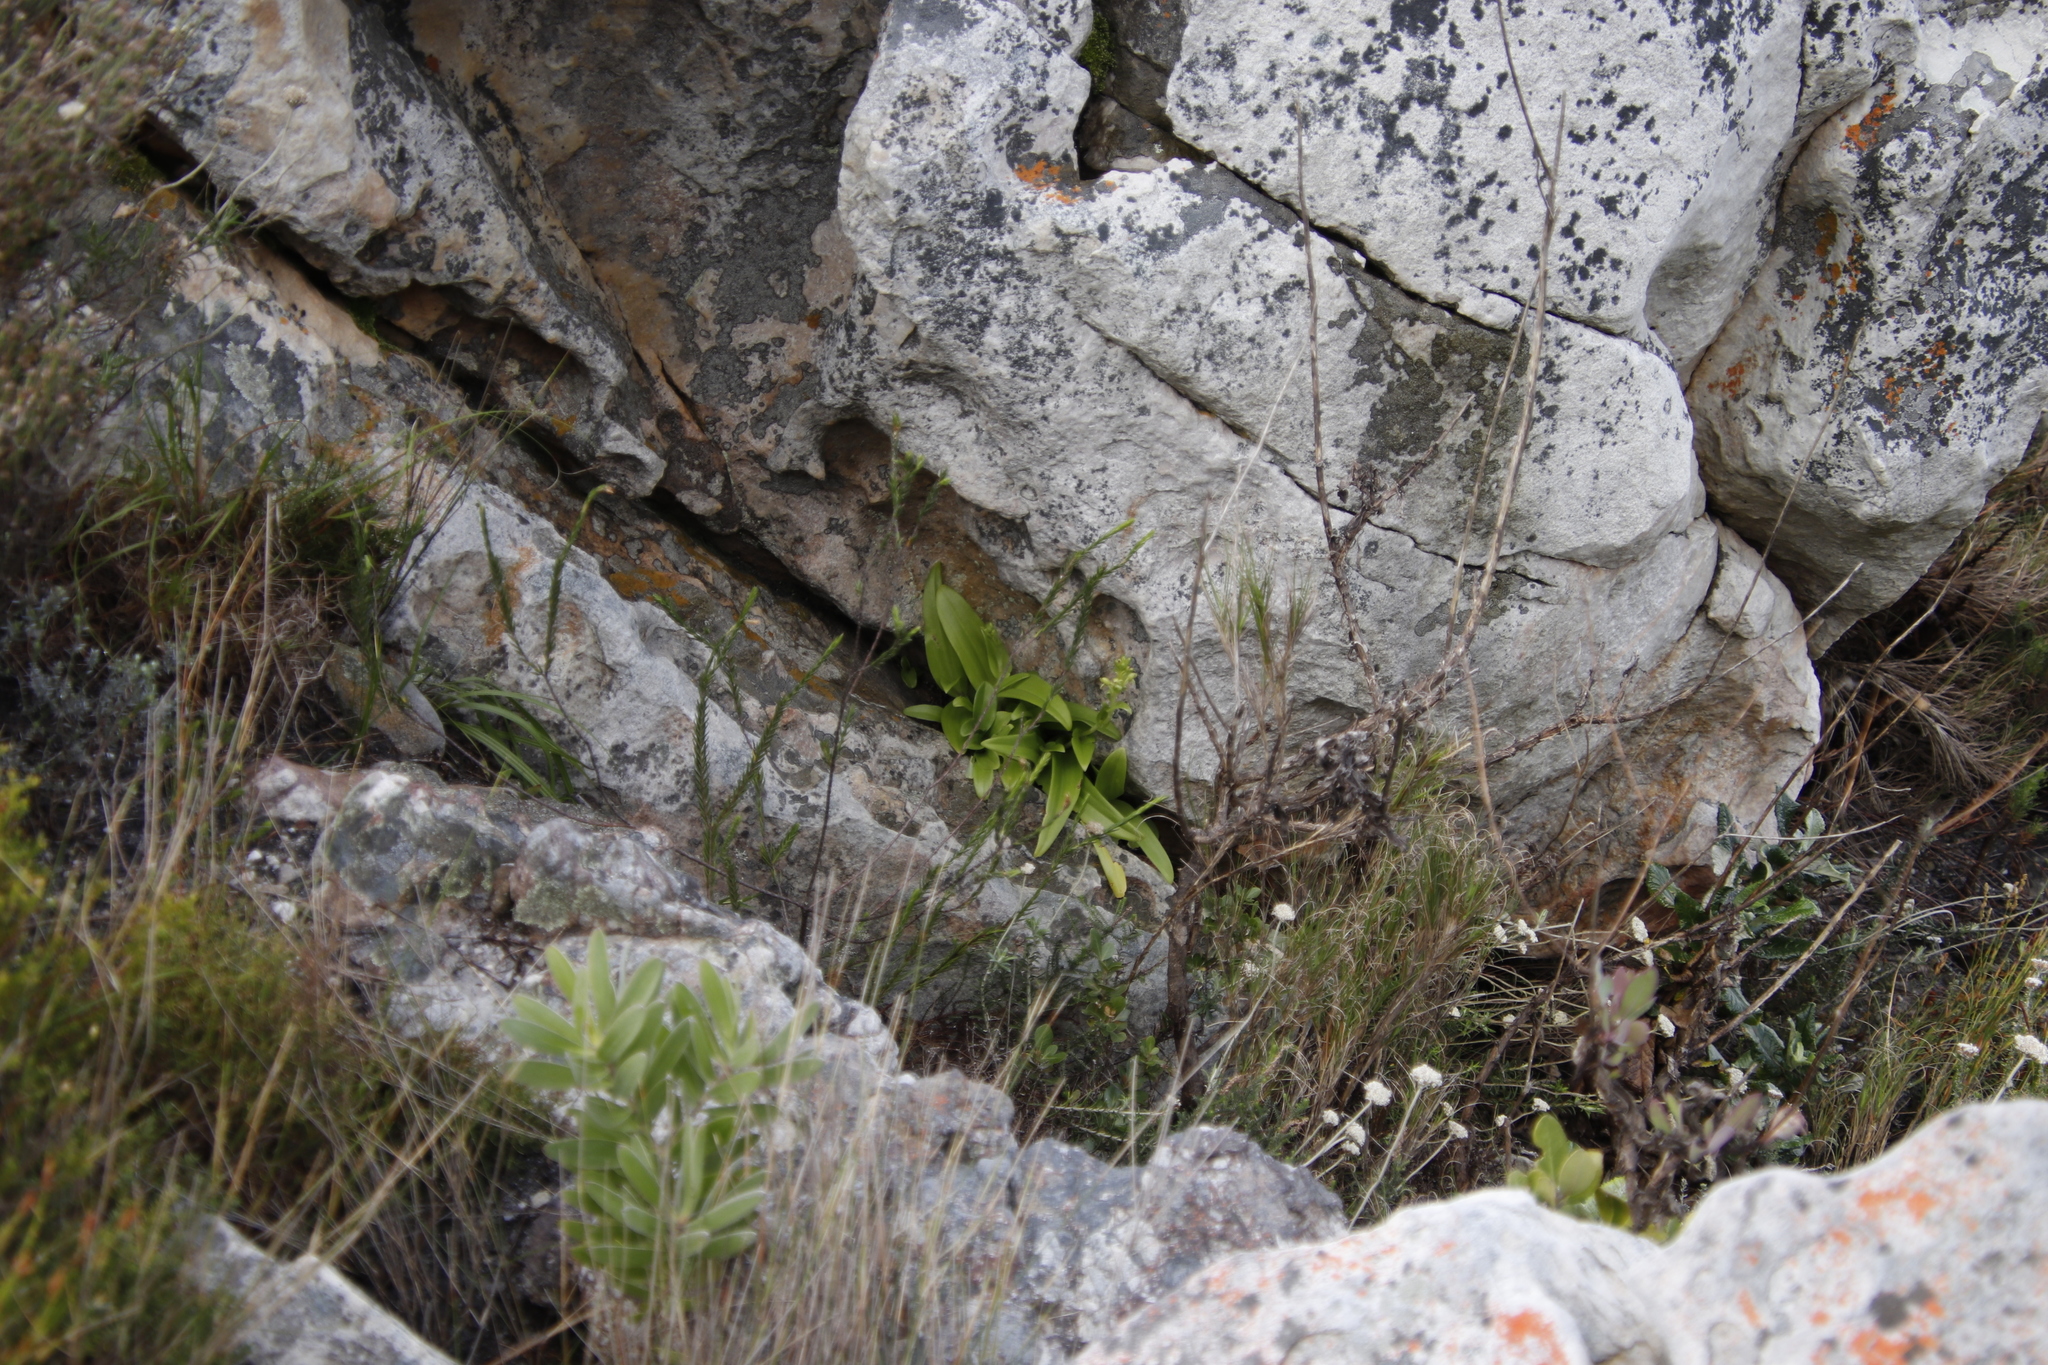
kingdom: Plantae
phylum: Tracheophyta
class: Liliopsida
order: Asparagales
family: Orchidaceae
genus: Satyrium
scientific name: Satyrium odorum
